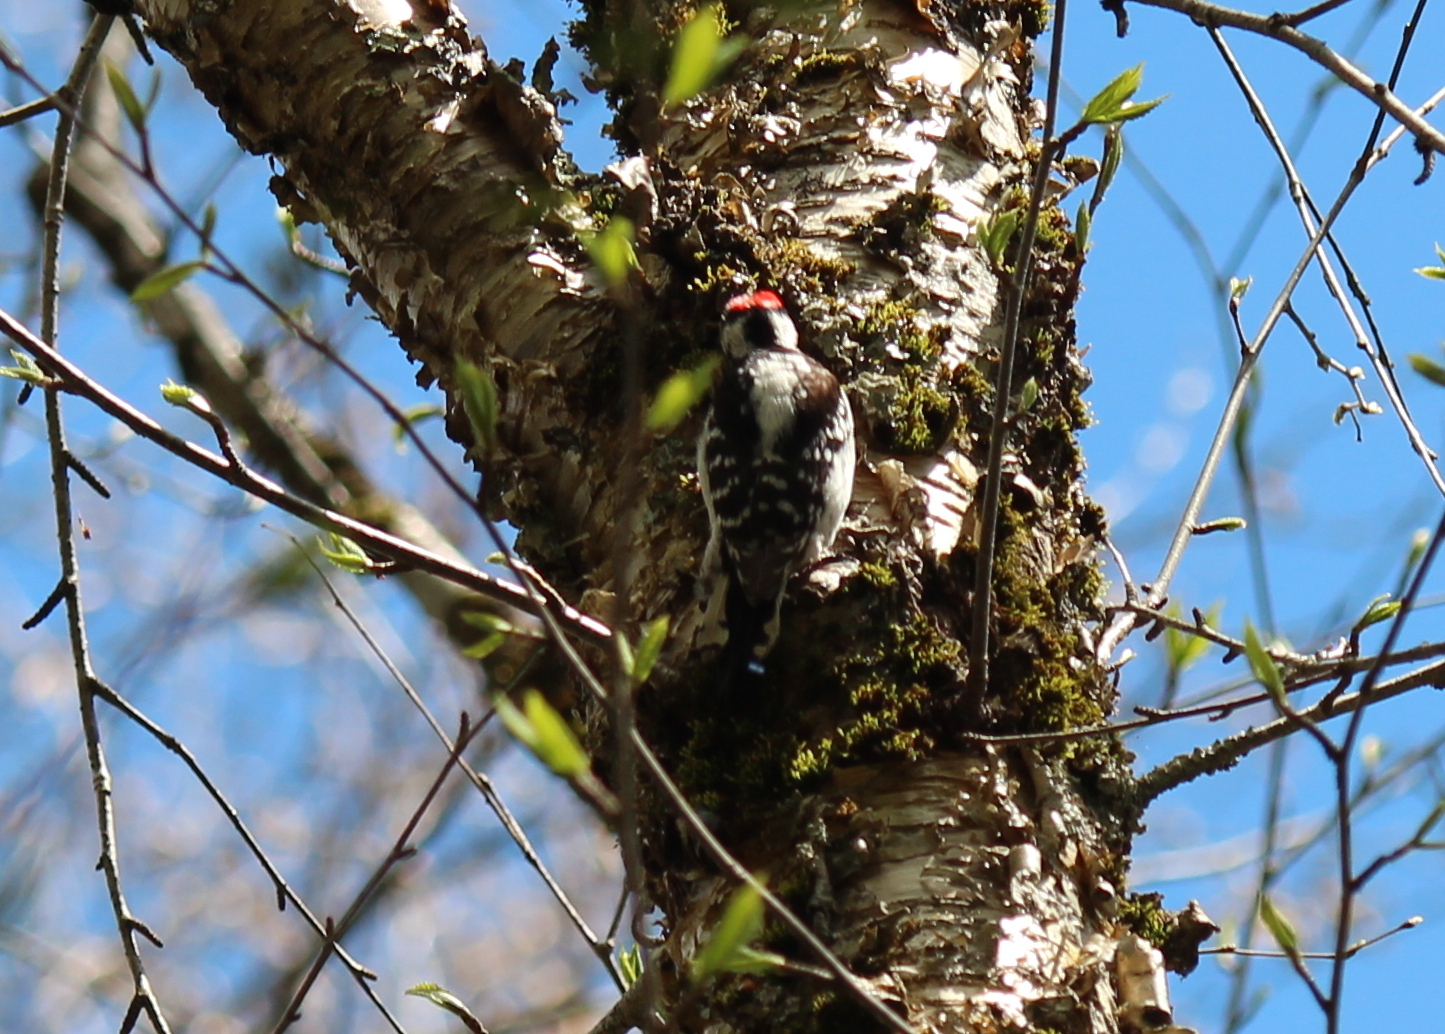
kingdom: Animalia
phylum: Chordata
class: Aves
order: Piciformes
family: Picidae
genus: Dryobates
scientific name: Dryobates pubescens
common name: Downy woodpecker
